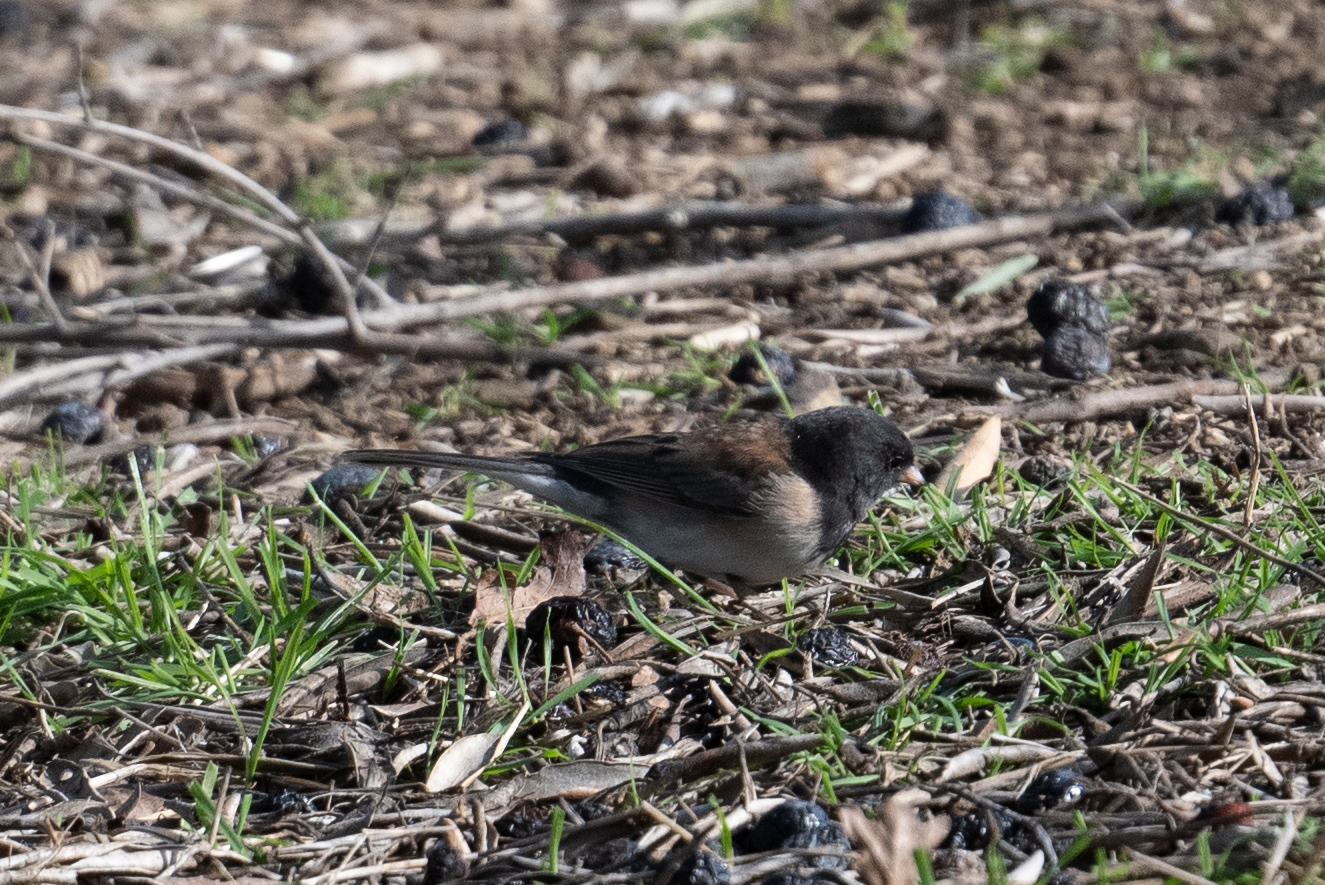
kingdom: Animalia
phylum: Chordata
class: Aves
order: Passeriformes
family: Passerellidae
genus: Junco
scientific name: Junco hyemalis
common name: Dark-eyed junco
